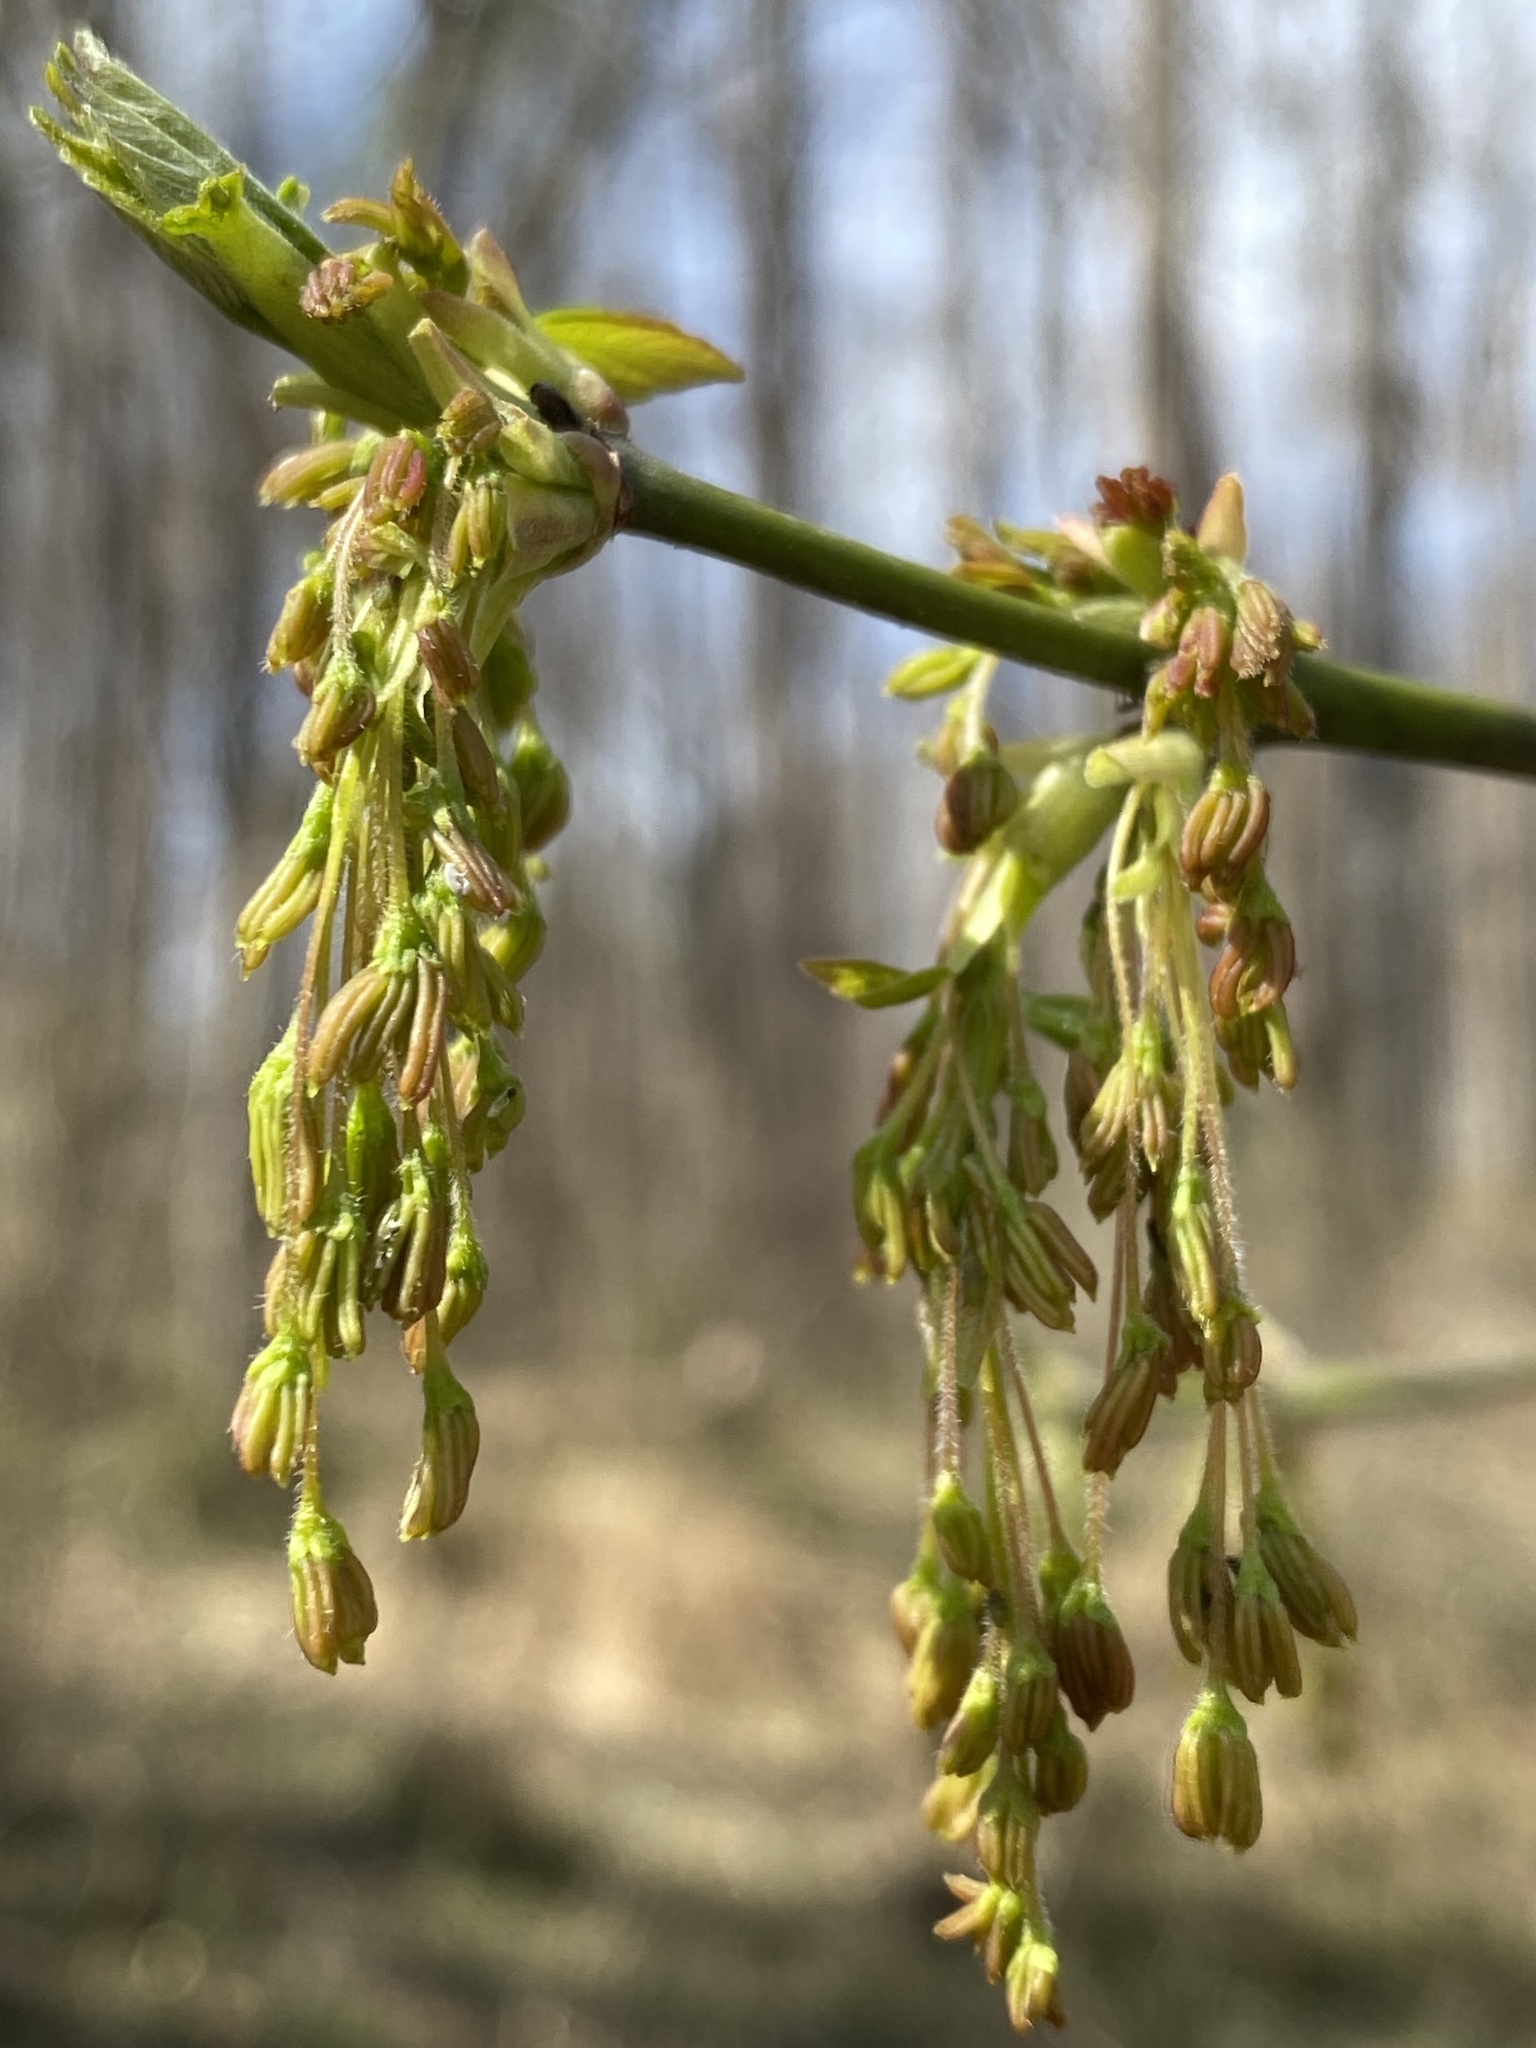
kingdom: Plantae
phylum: Tracheophyta
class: Magnoliopsida
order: Sapindales
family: Sapindaceae
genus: Acer
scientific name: Acer negundo
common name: Ashleaf maple
